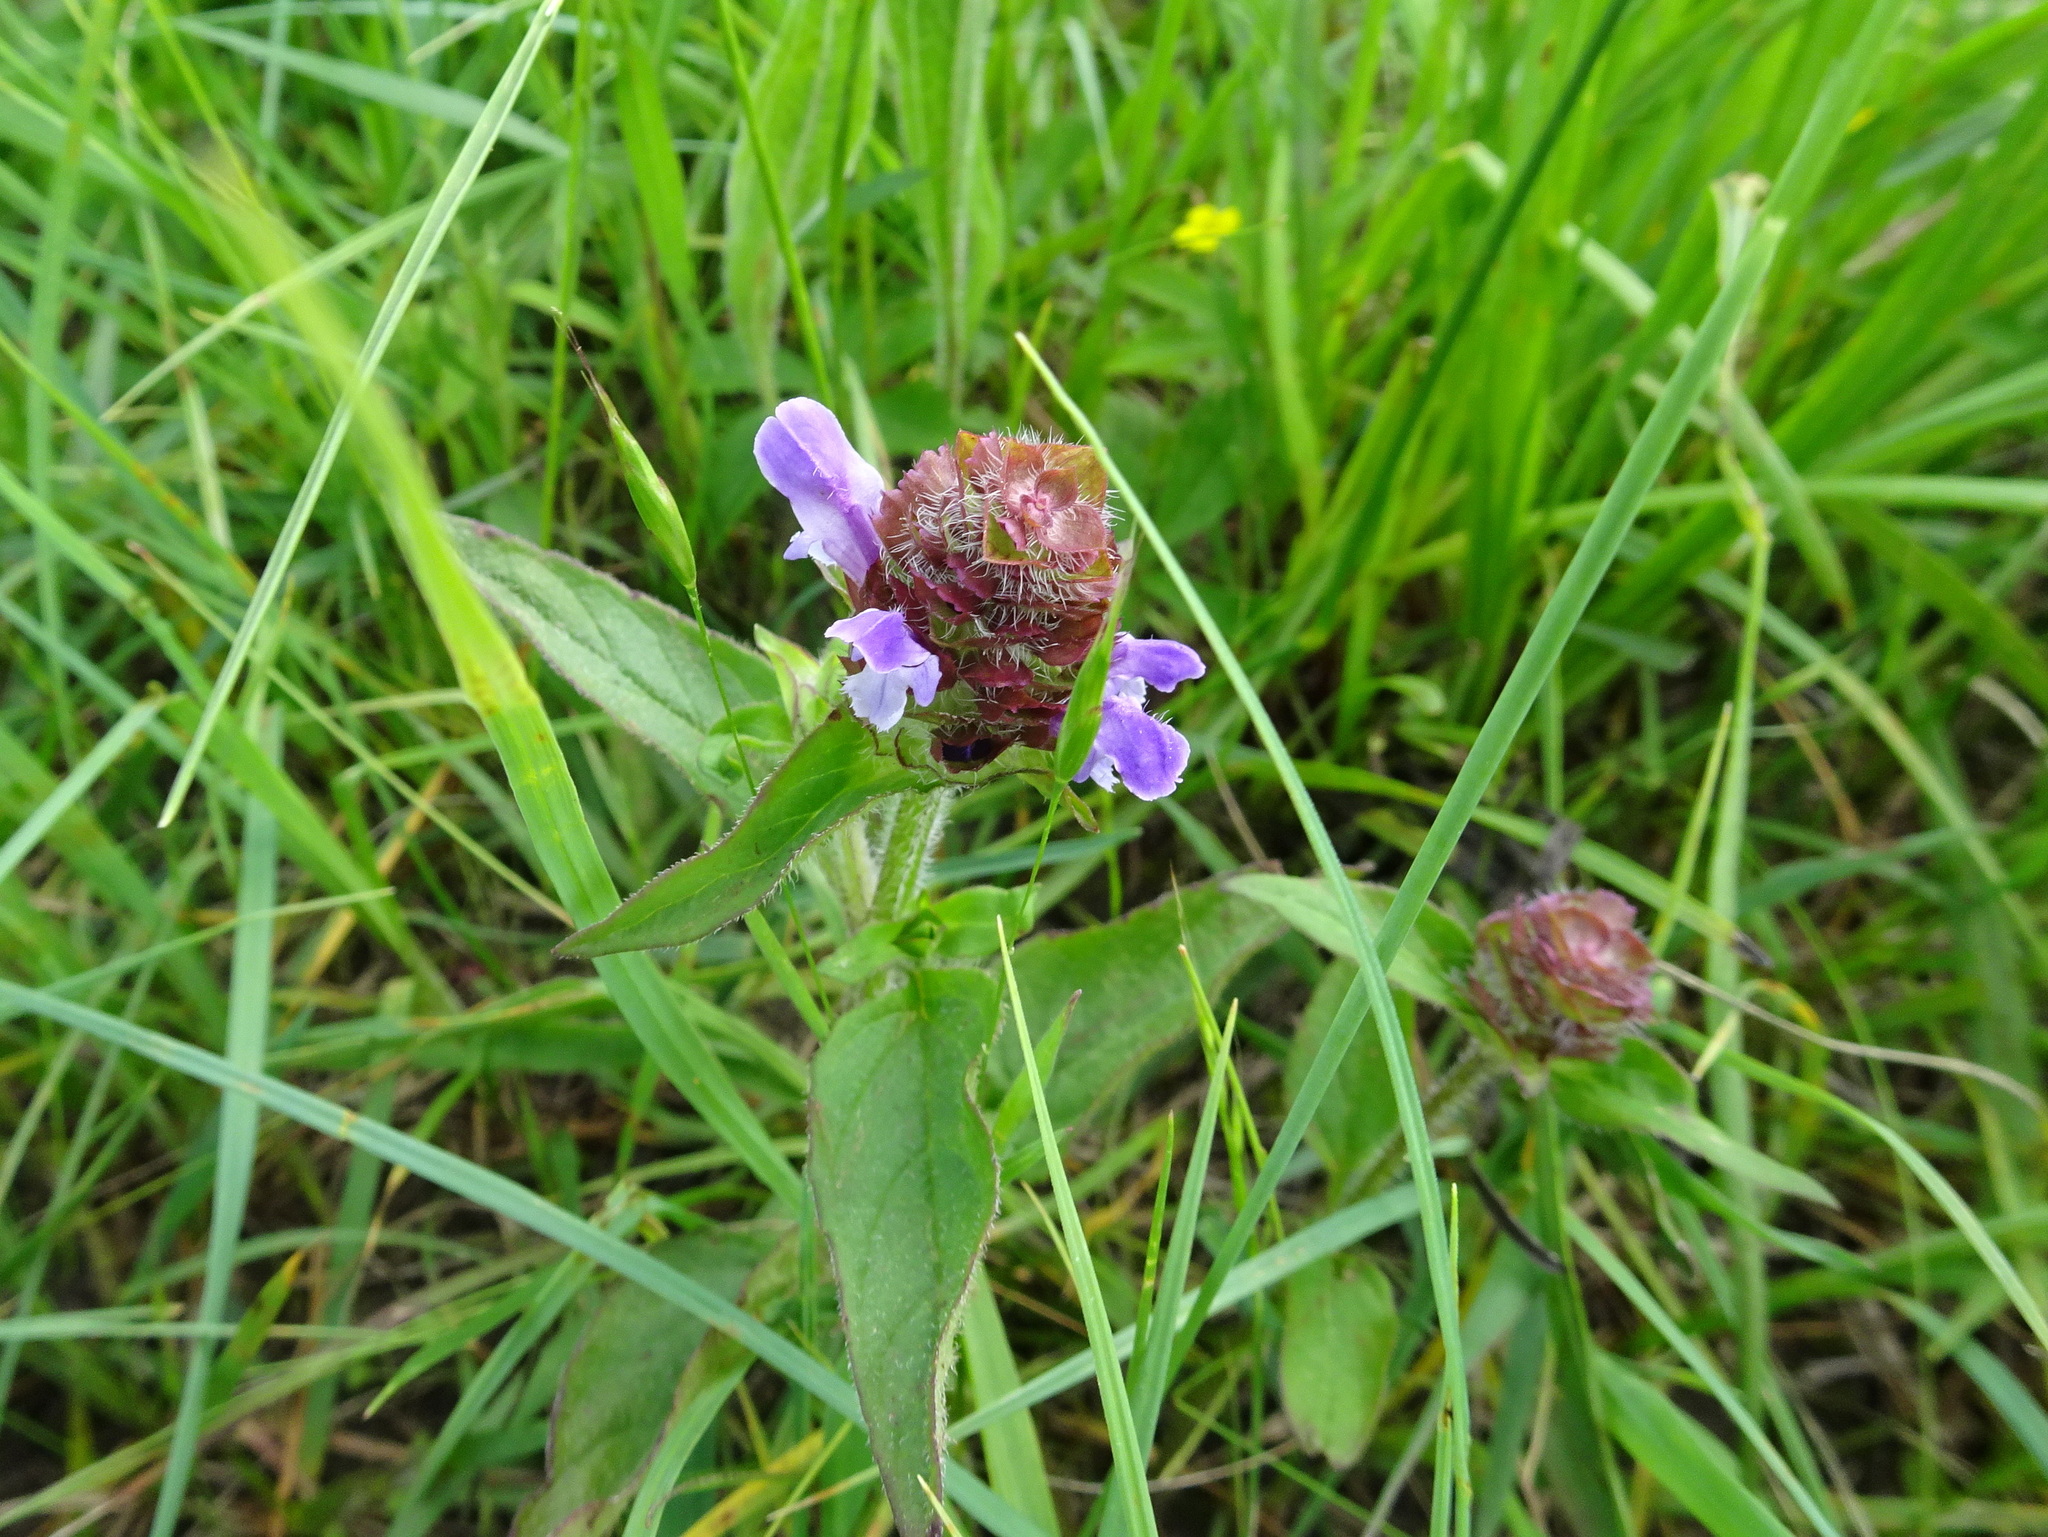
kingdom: Plantae
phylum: Tracheophyta
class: Magnoliopsida
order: Lamiales
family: Lamiaceae
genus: Prunella
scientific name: Prunella vulgaris
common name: Heal-all
